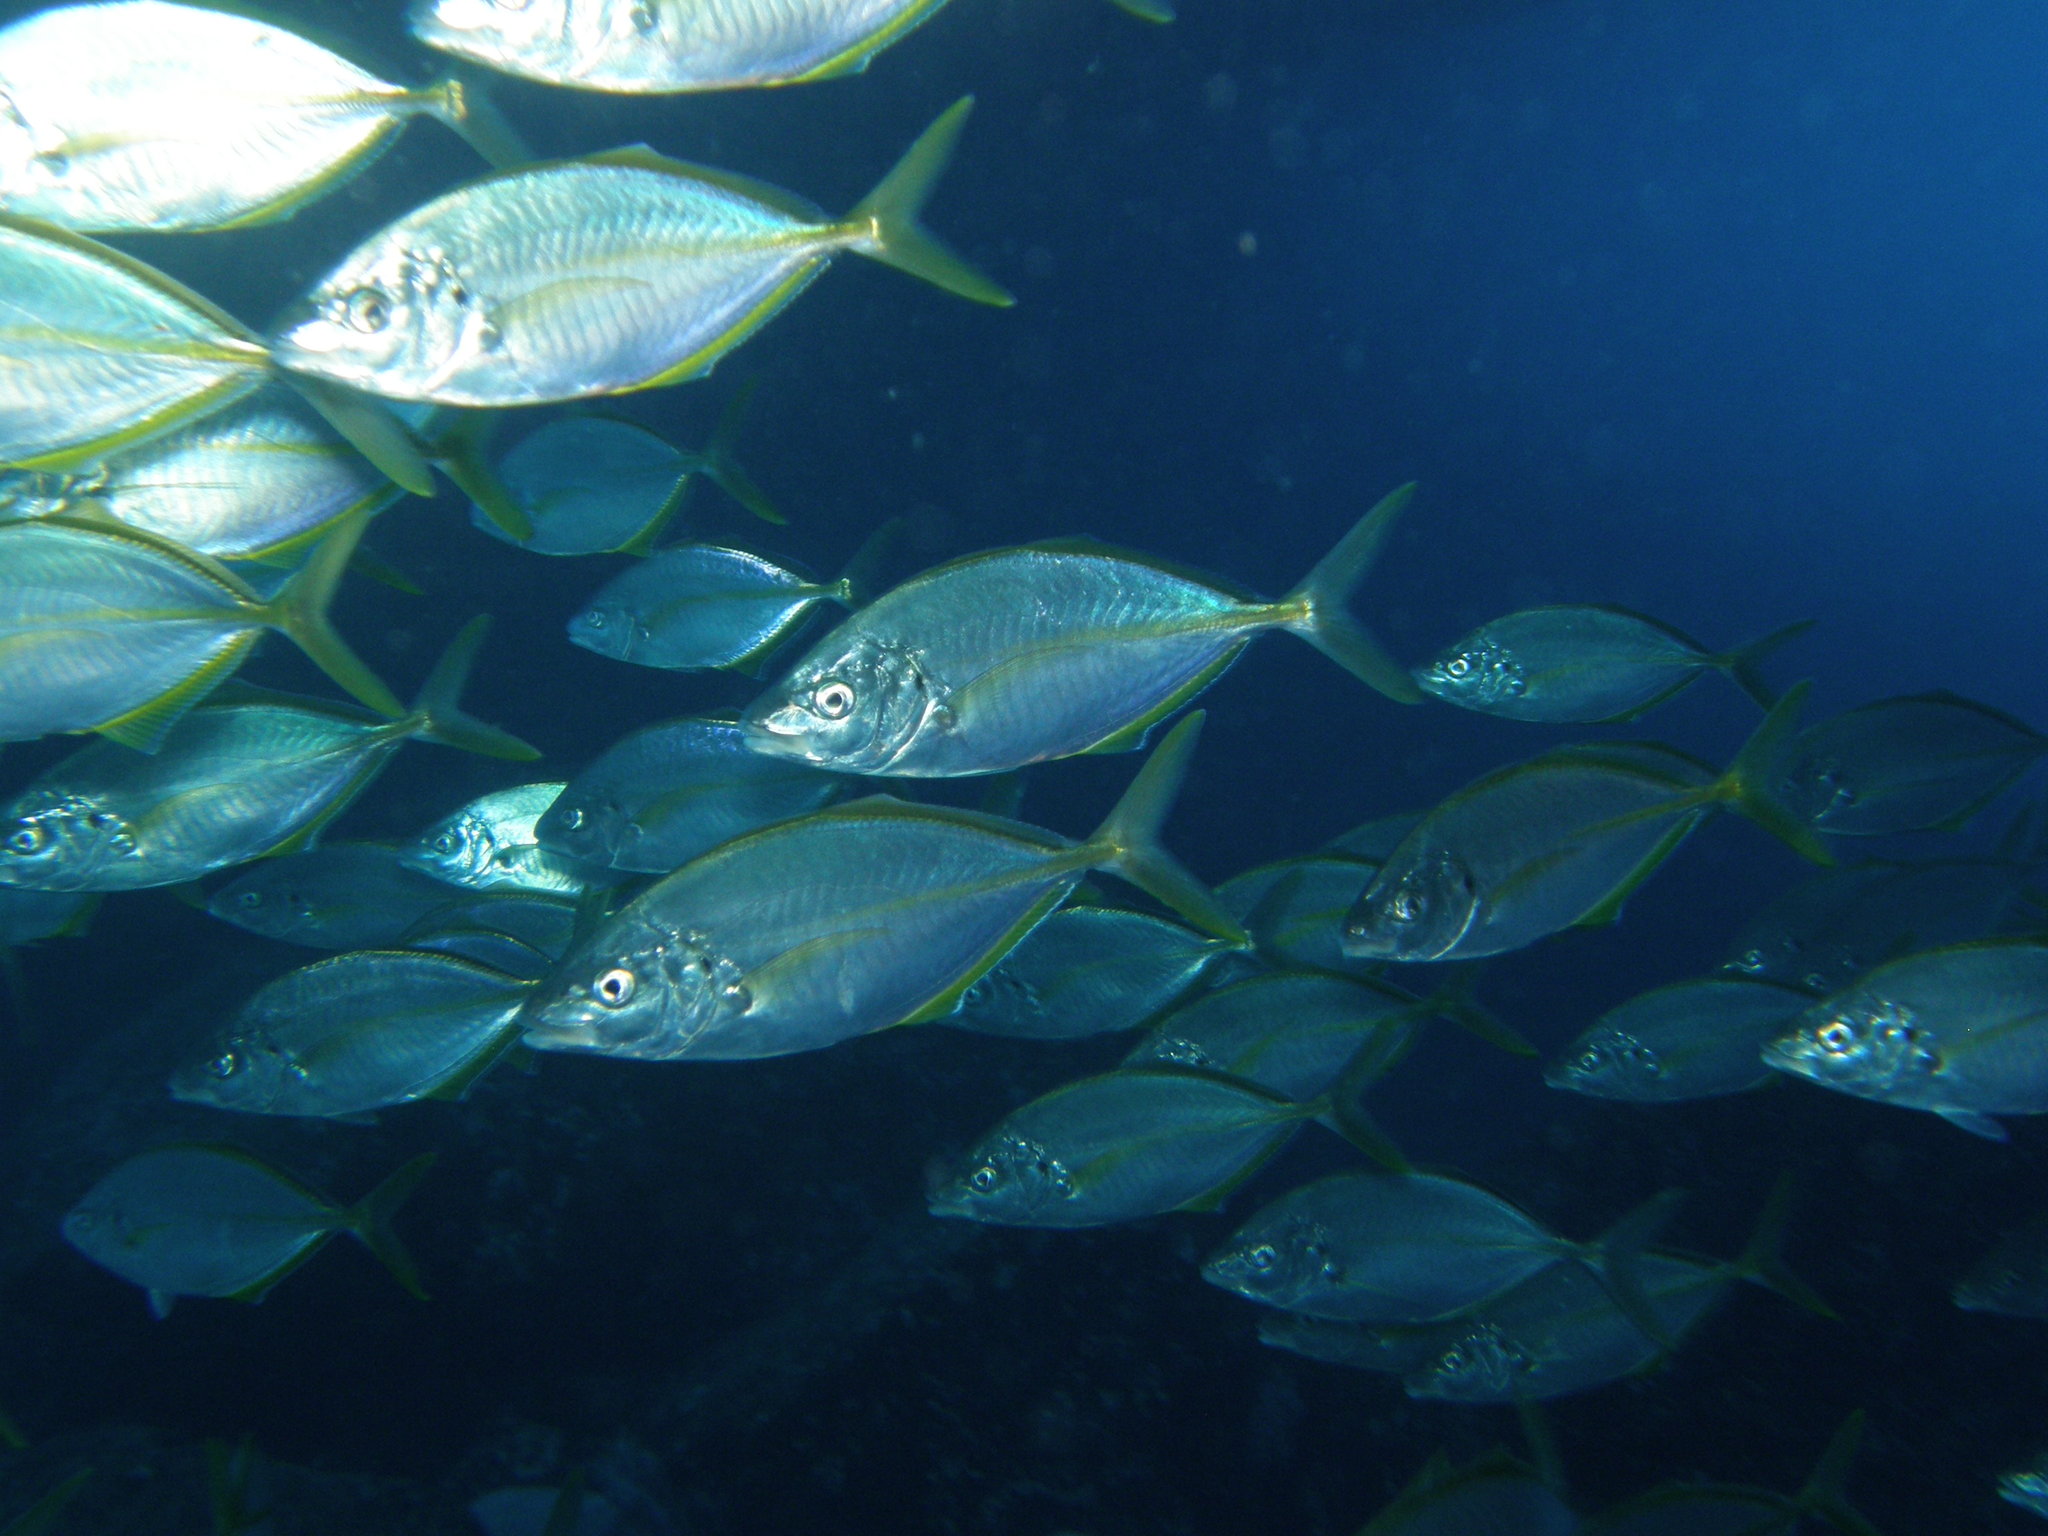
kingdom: Animalia
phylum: Chordata
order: Perciformes
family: Carangidae
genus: Pseudocaranx
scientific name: Pseudocaranx dentex
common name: White trevally
